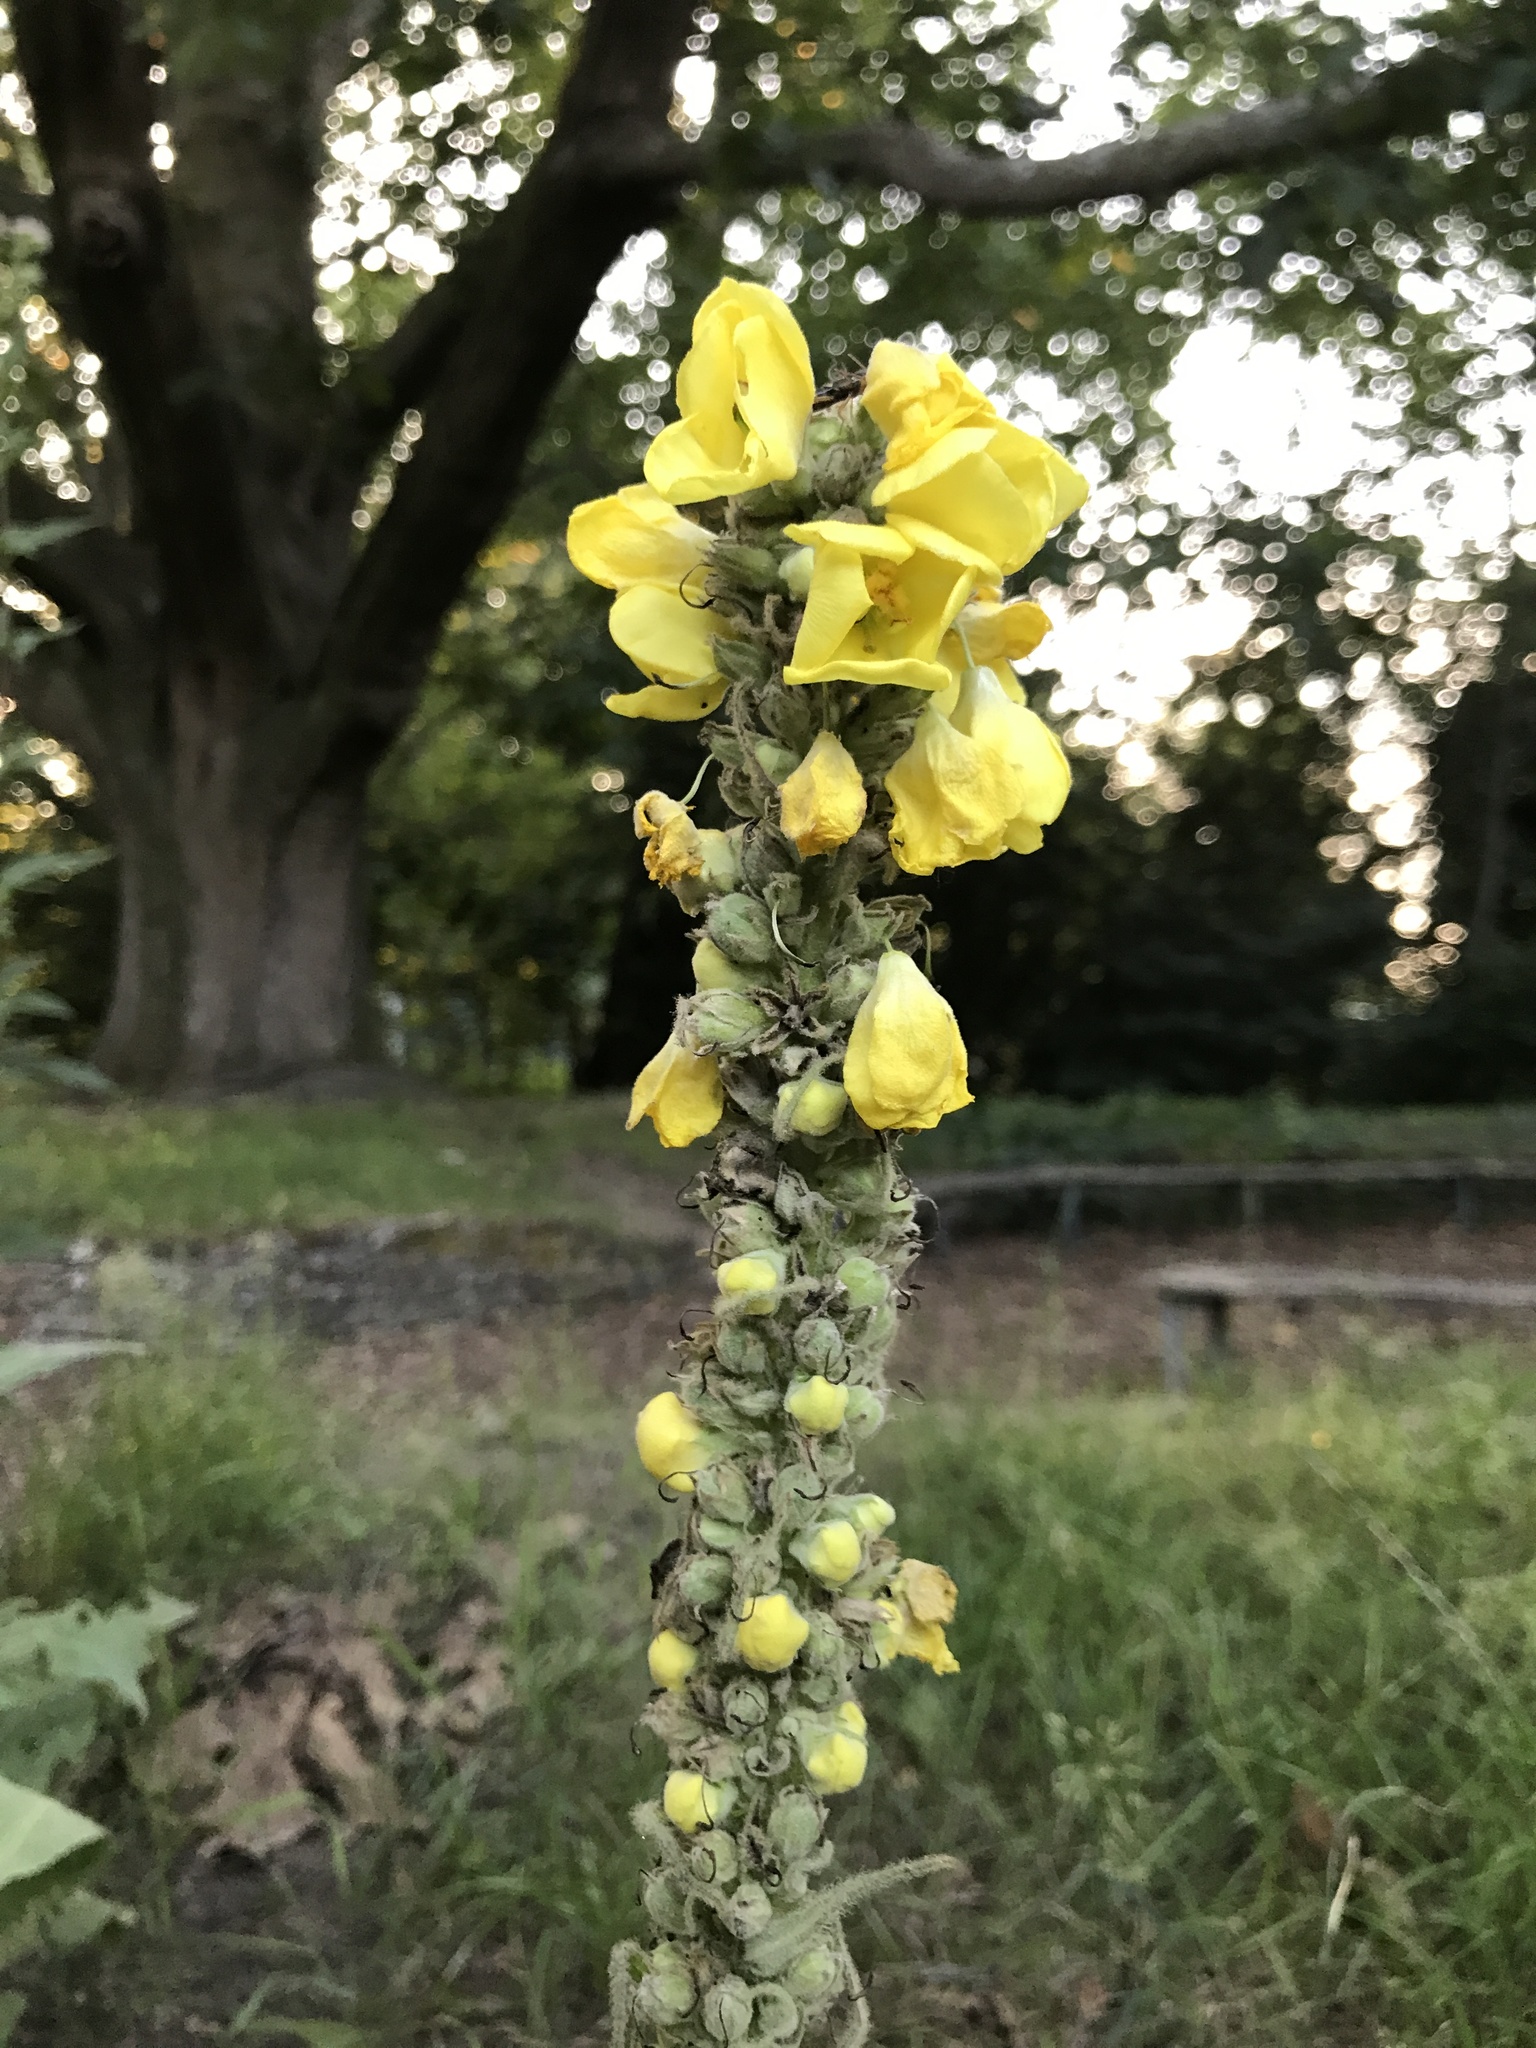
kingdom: Plantae
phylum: Tracheophyta
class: Magnoliopsida
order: Lamiales
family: Scrophulariaceae
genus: Verbascum
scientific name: Verbascum thapsus
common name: Common mullein
